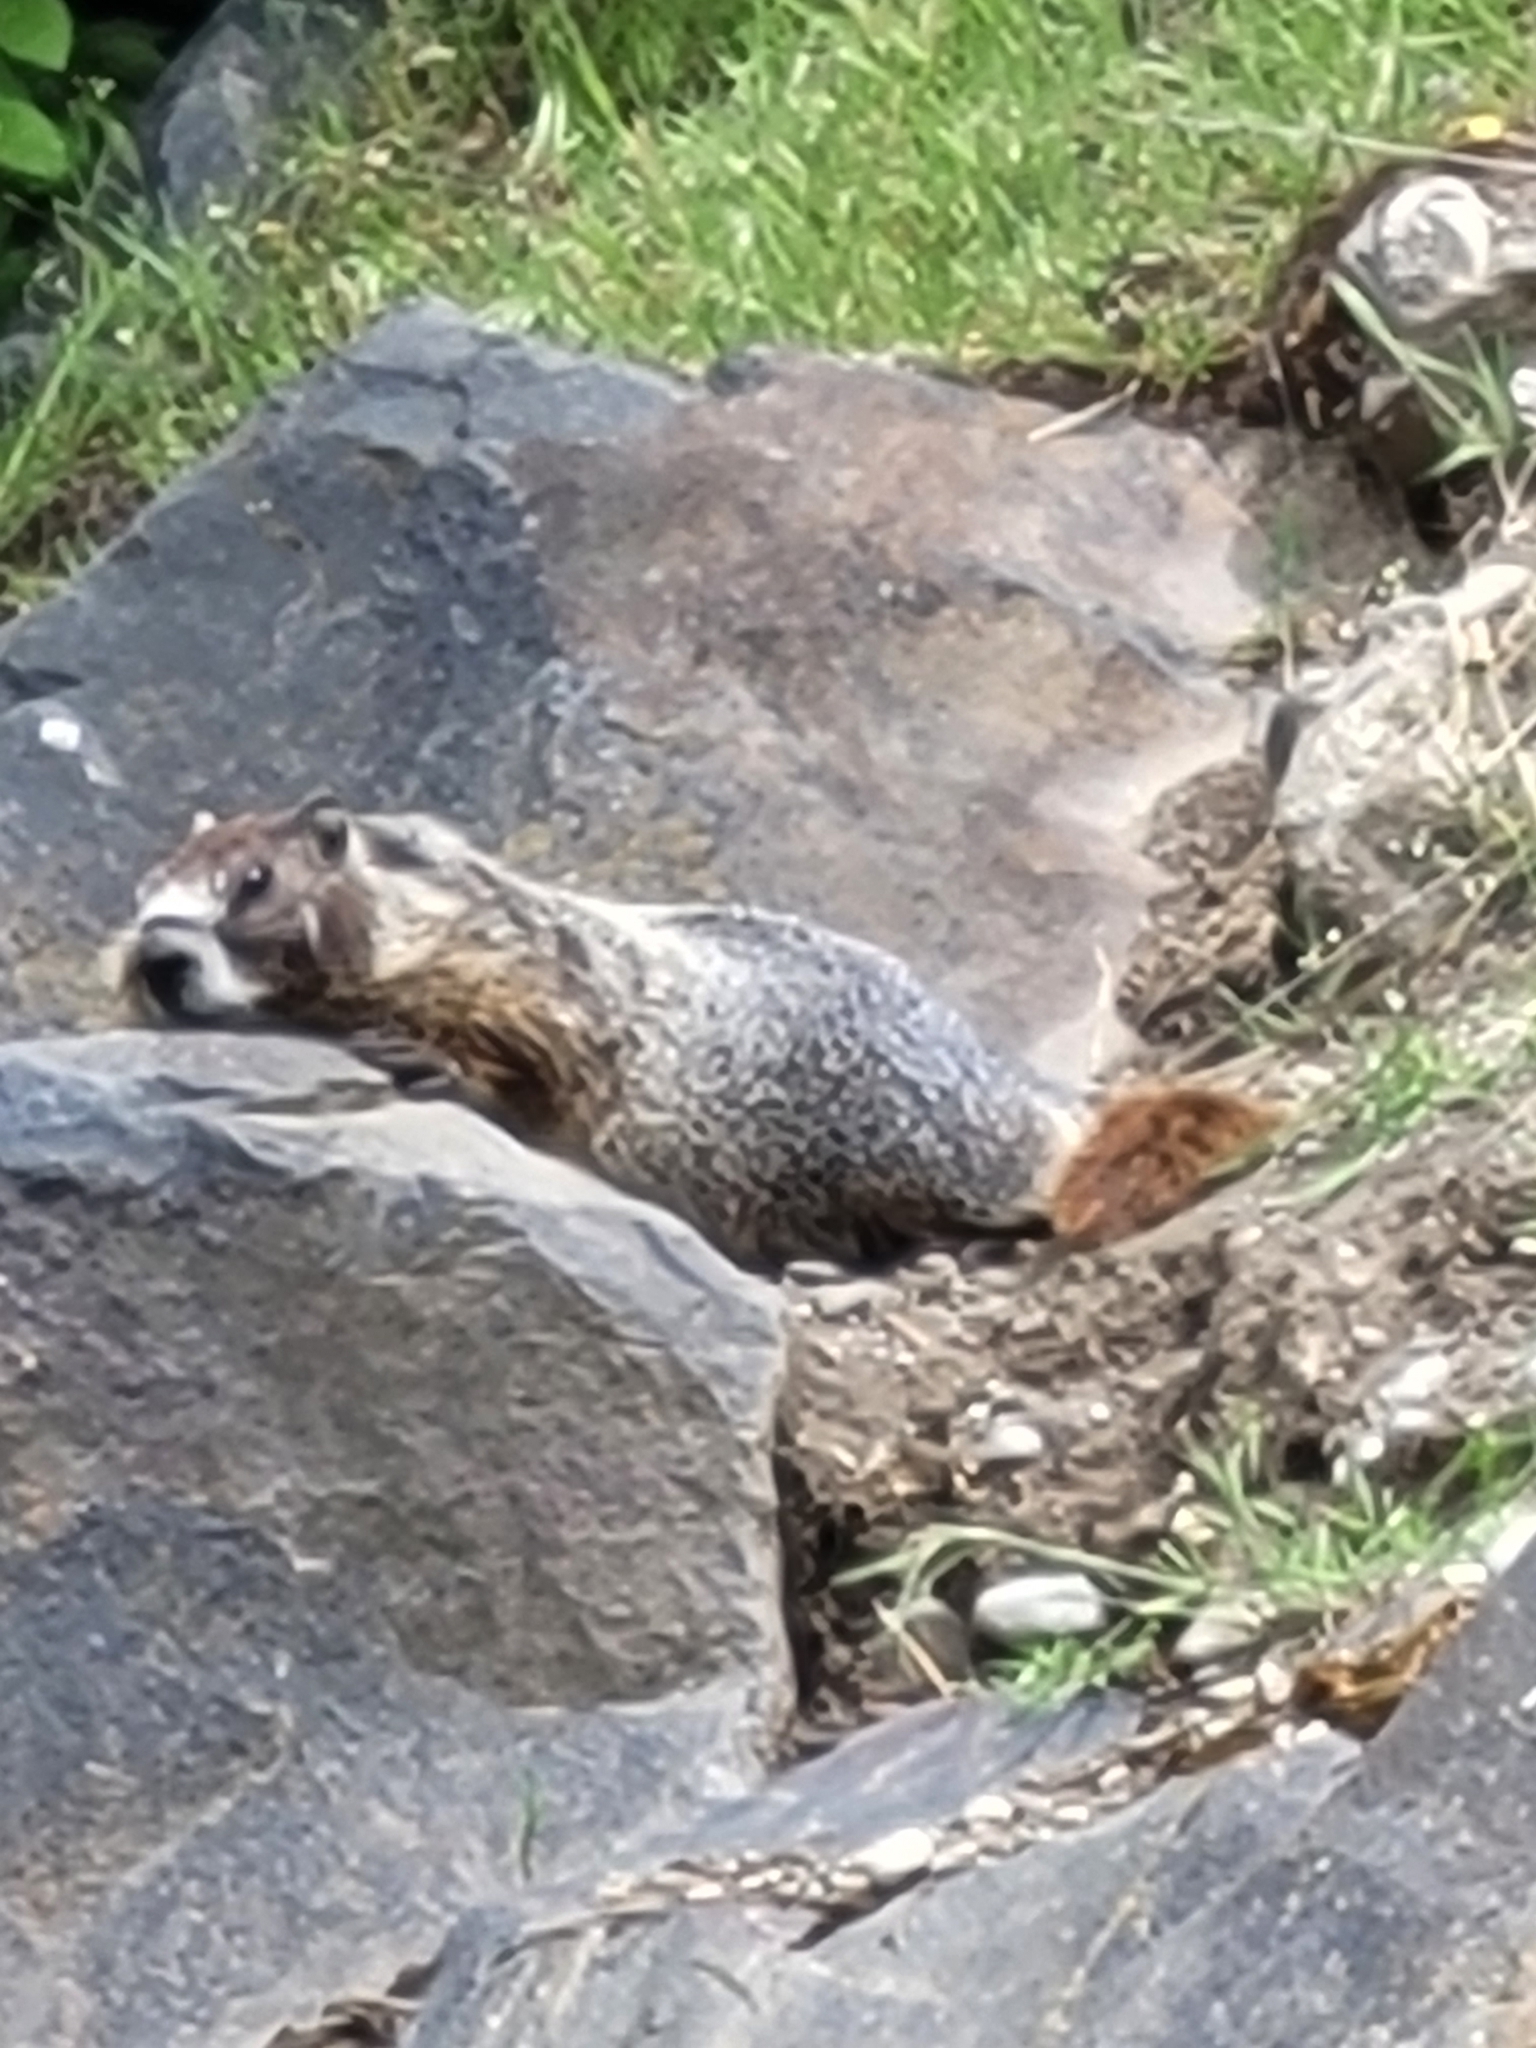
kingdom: Animalia
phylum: Chordata
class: Mammalia
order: Rodentia
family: Sciuridae
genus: Marmota
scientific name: Marmota flaviventris
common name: Yellow-bellied marmot
